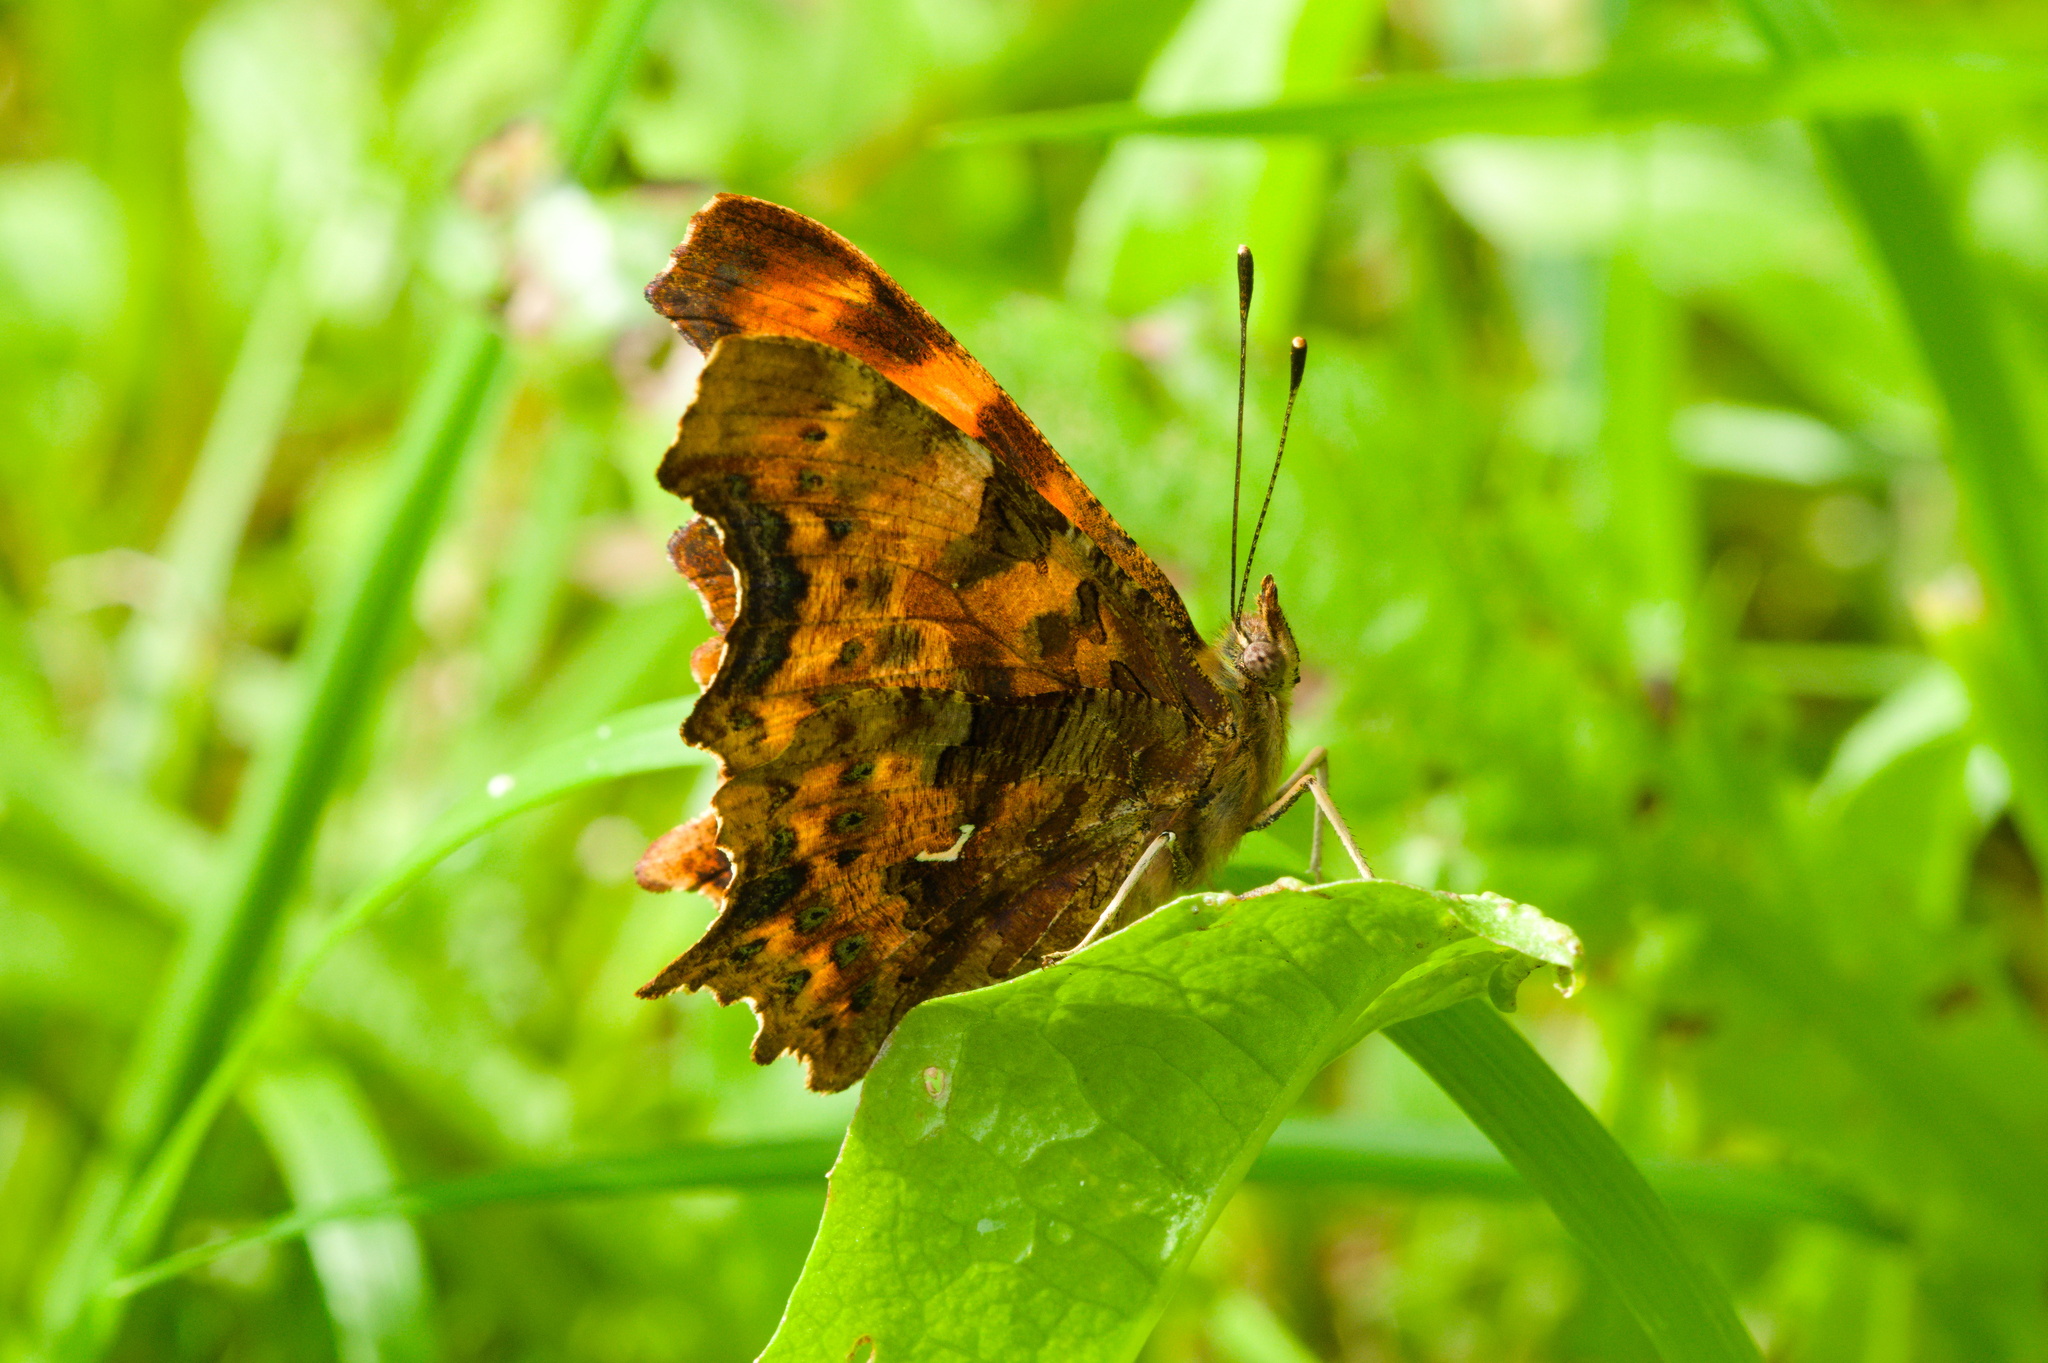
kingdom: Animalia
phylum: Arthropoda
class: Insecta
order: Lepidoptera
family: Nymphalidae
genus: Polygonia
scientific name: Polygonia c-album
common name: Comma
